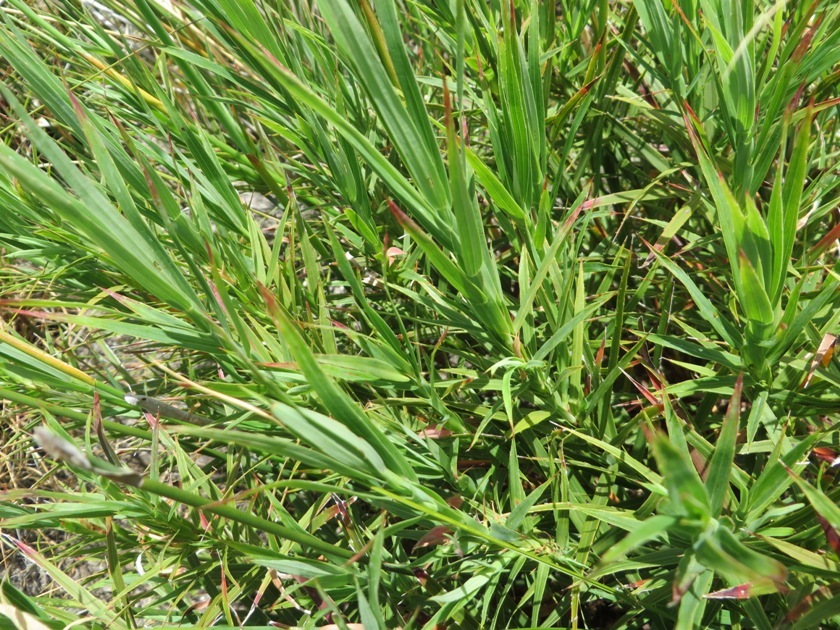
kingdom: Plantae
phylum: Tracheophyta
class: Magnoliopsida
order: Rosales
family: Rosaceae
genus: Cliffortia
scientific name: Cliffortia graminea
